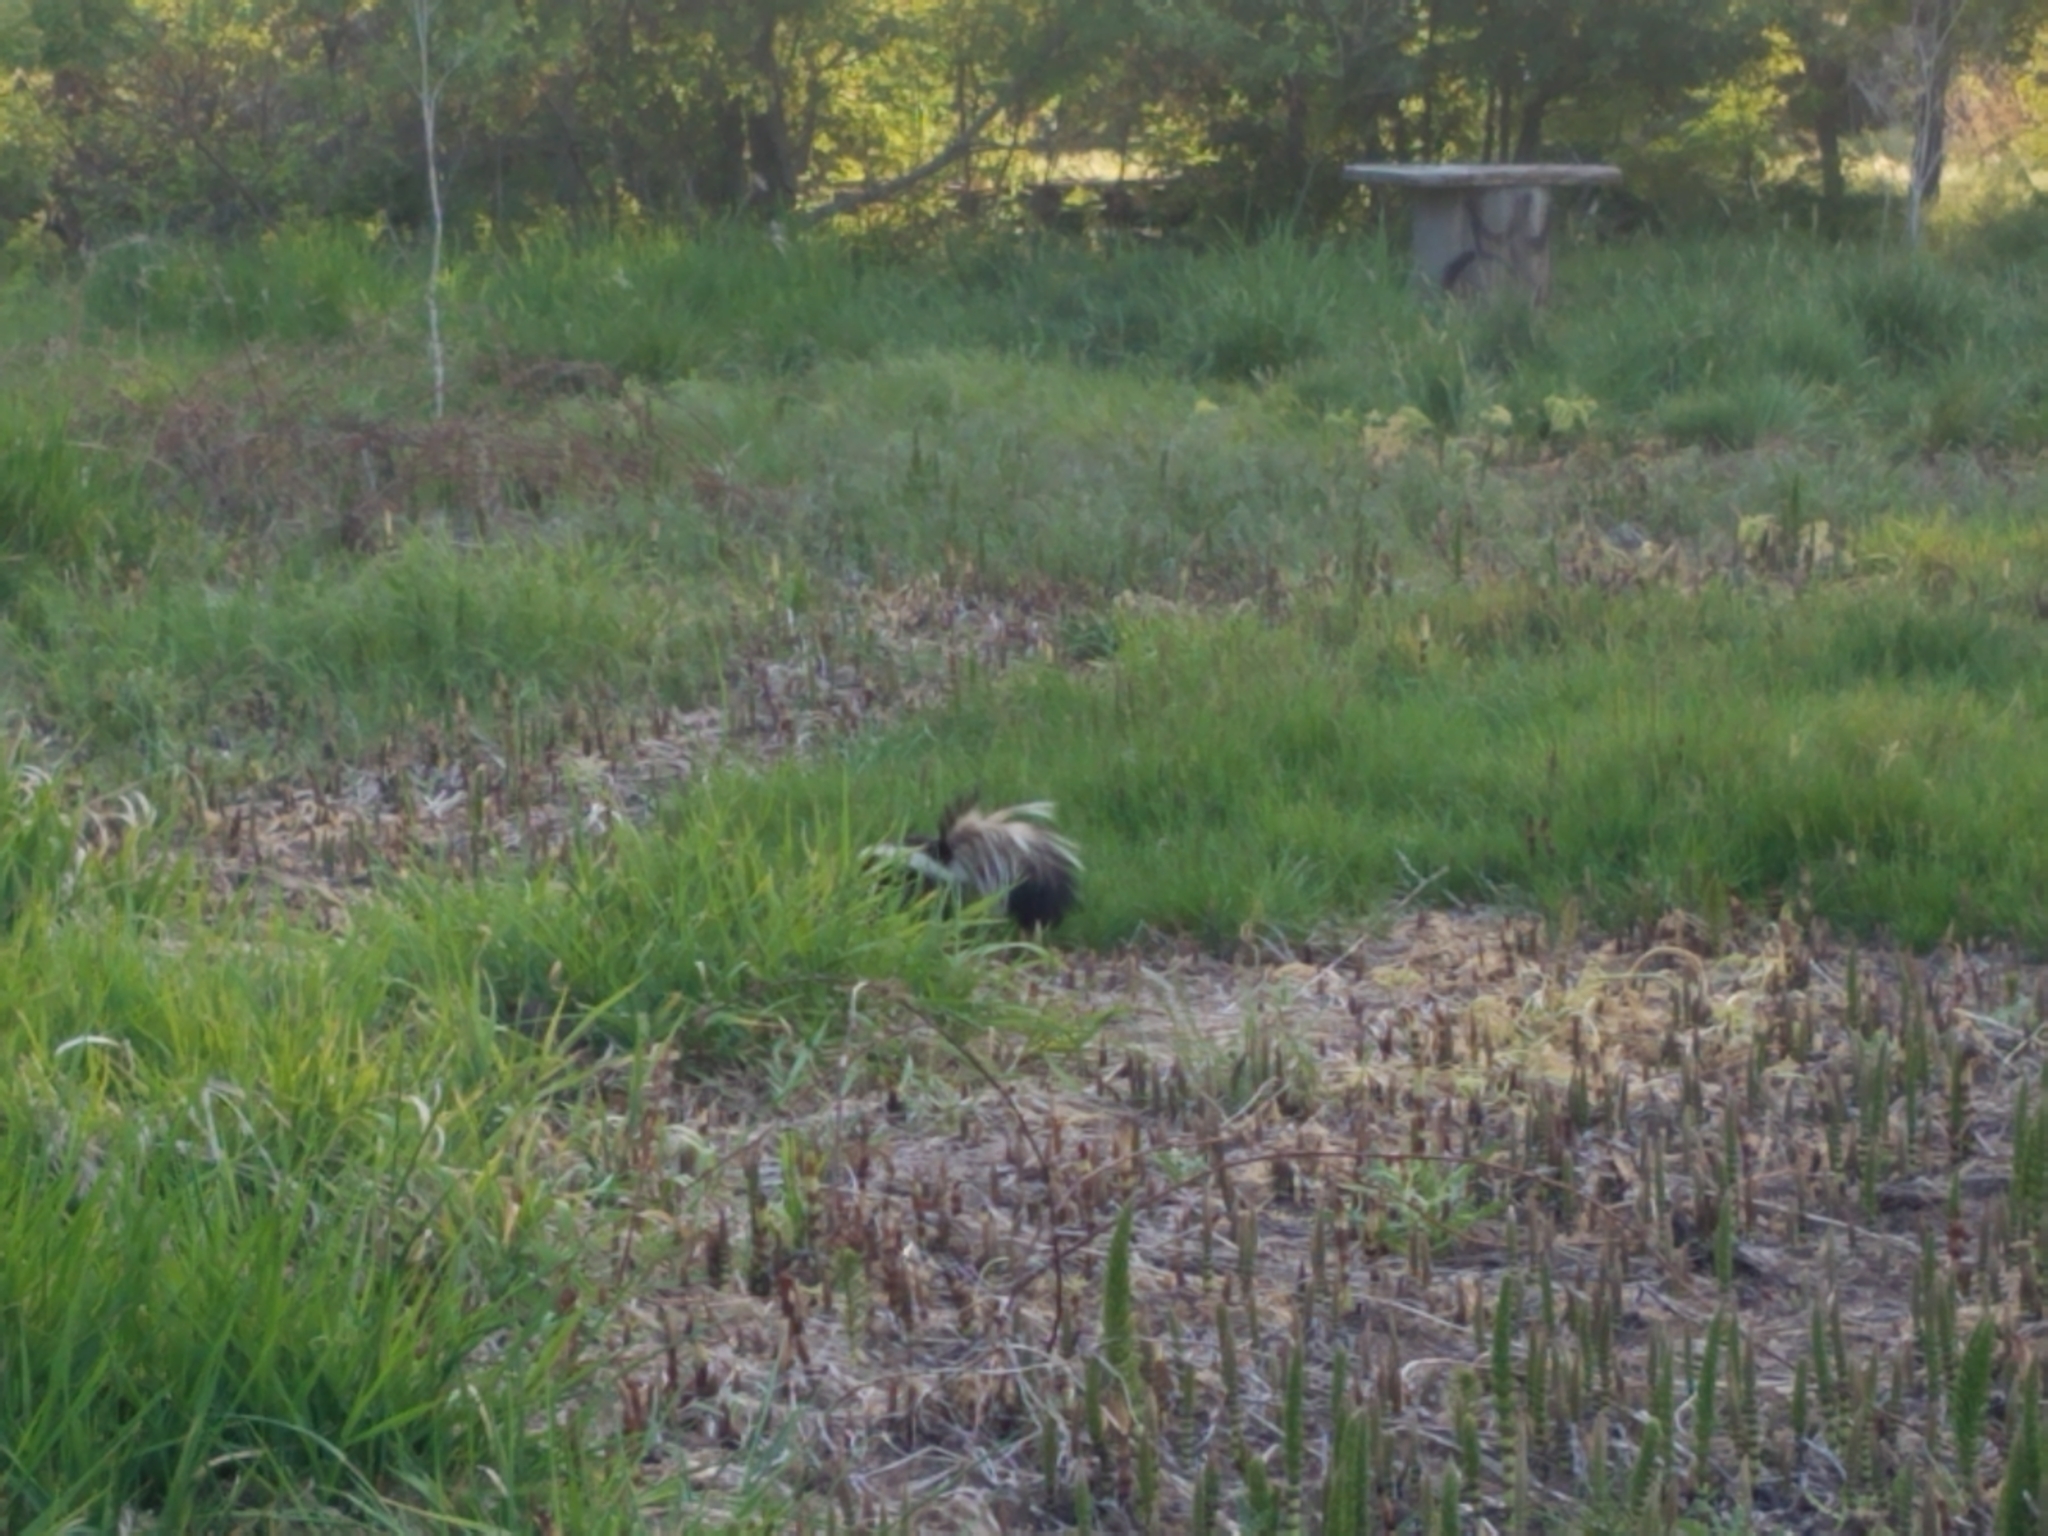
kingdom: Animalia
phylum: Chordata
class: Mammalia
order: Carnivora
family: Mephitidae
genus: Mephitis
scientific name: Mephitis mephitis
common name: Striped skunk
